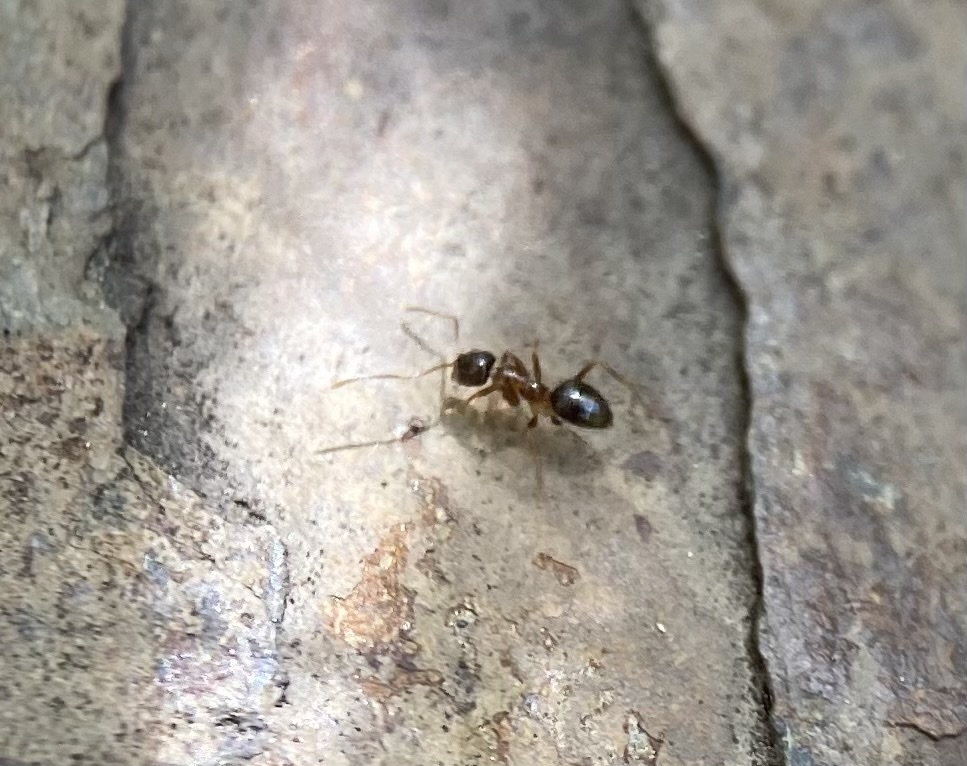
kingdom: Animalia
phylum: Arthropoda
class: Insecta
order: Hymenoptera
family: Formicidae
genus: Paratrechina
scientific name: Paratrechina vividula
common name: Nylander's crazy ant
